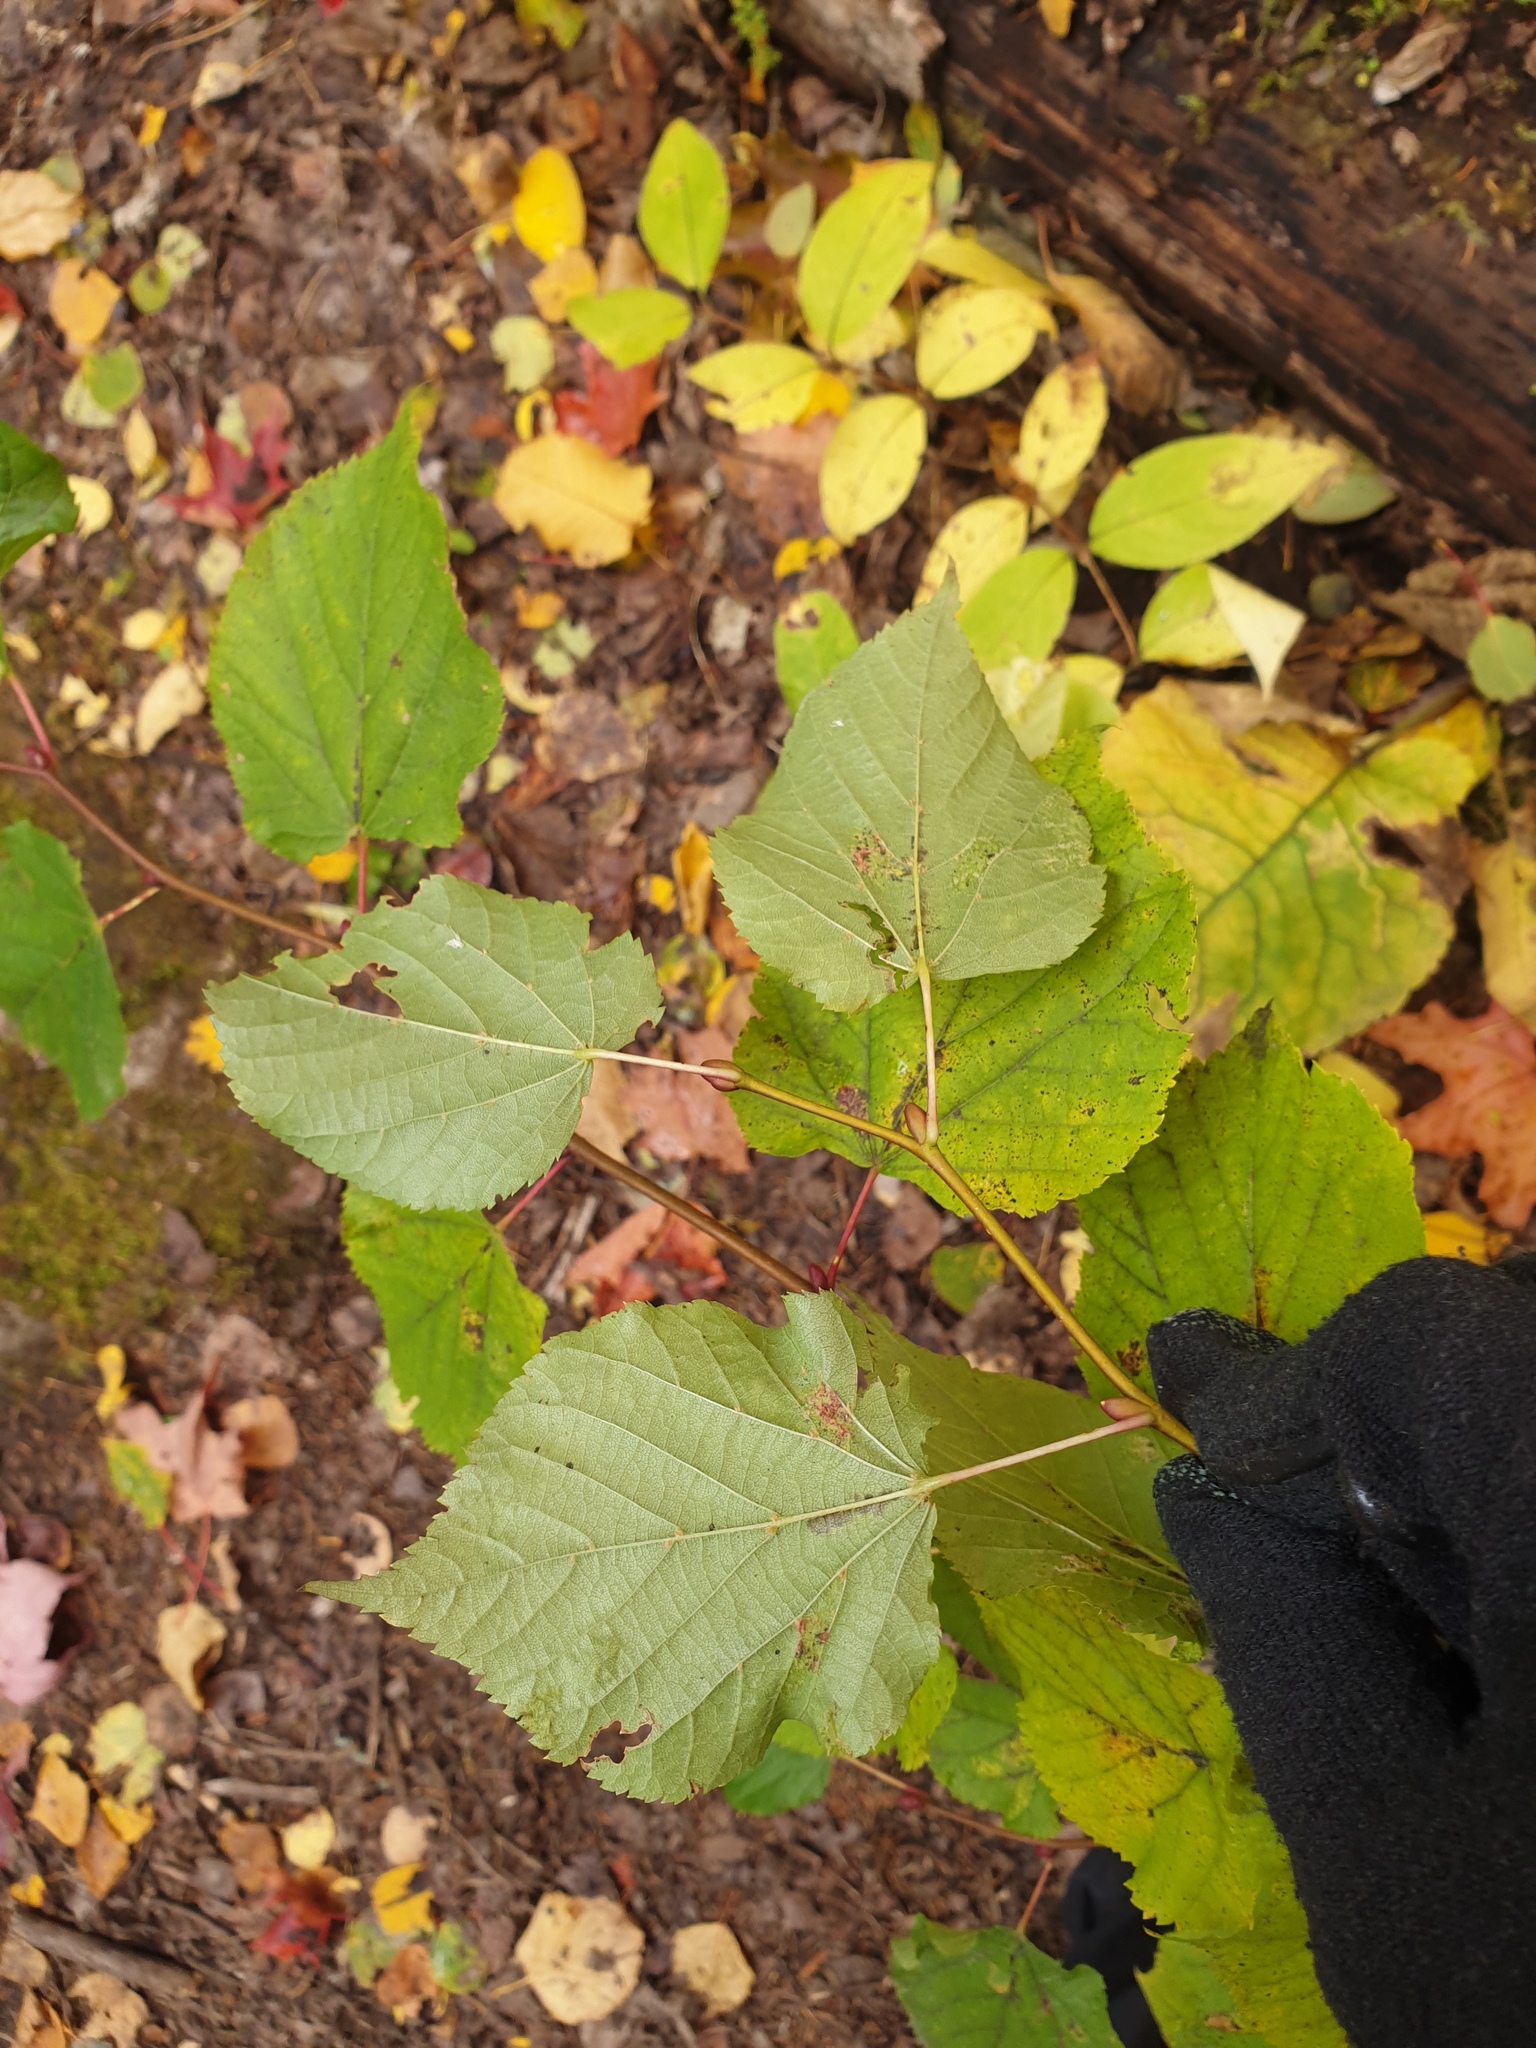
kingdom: Plantae
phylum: Tracheophyta
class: Magnoliopsida
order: Malvales
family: Malvaceae
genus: Tilia
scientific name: Tilia cordata
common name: Small-leaved lime
